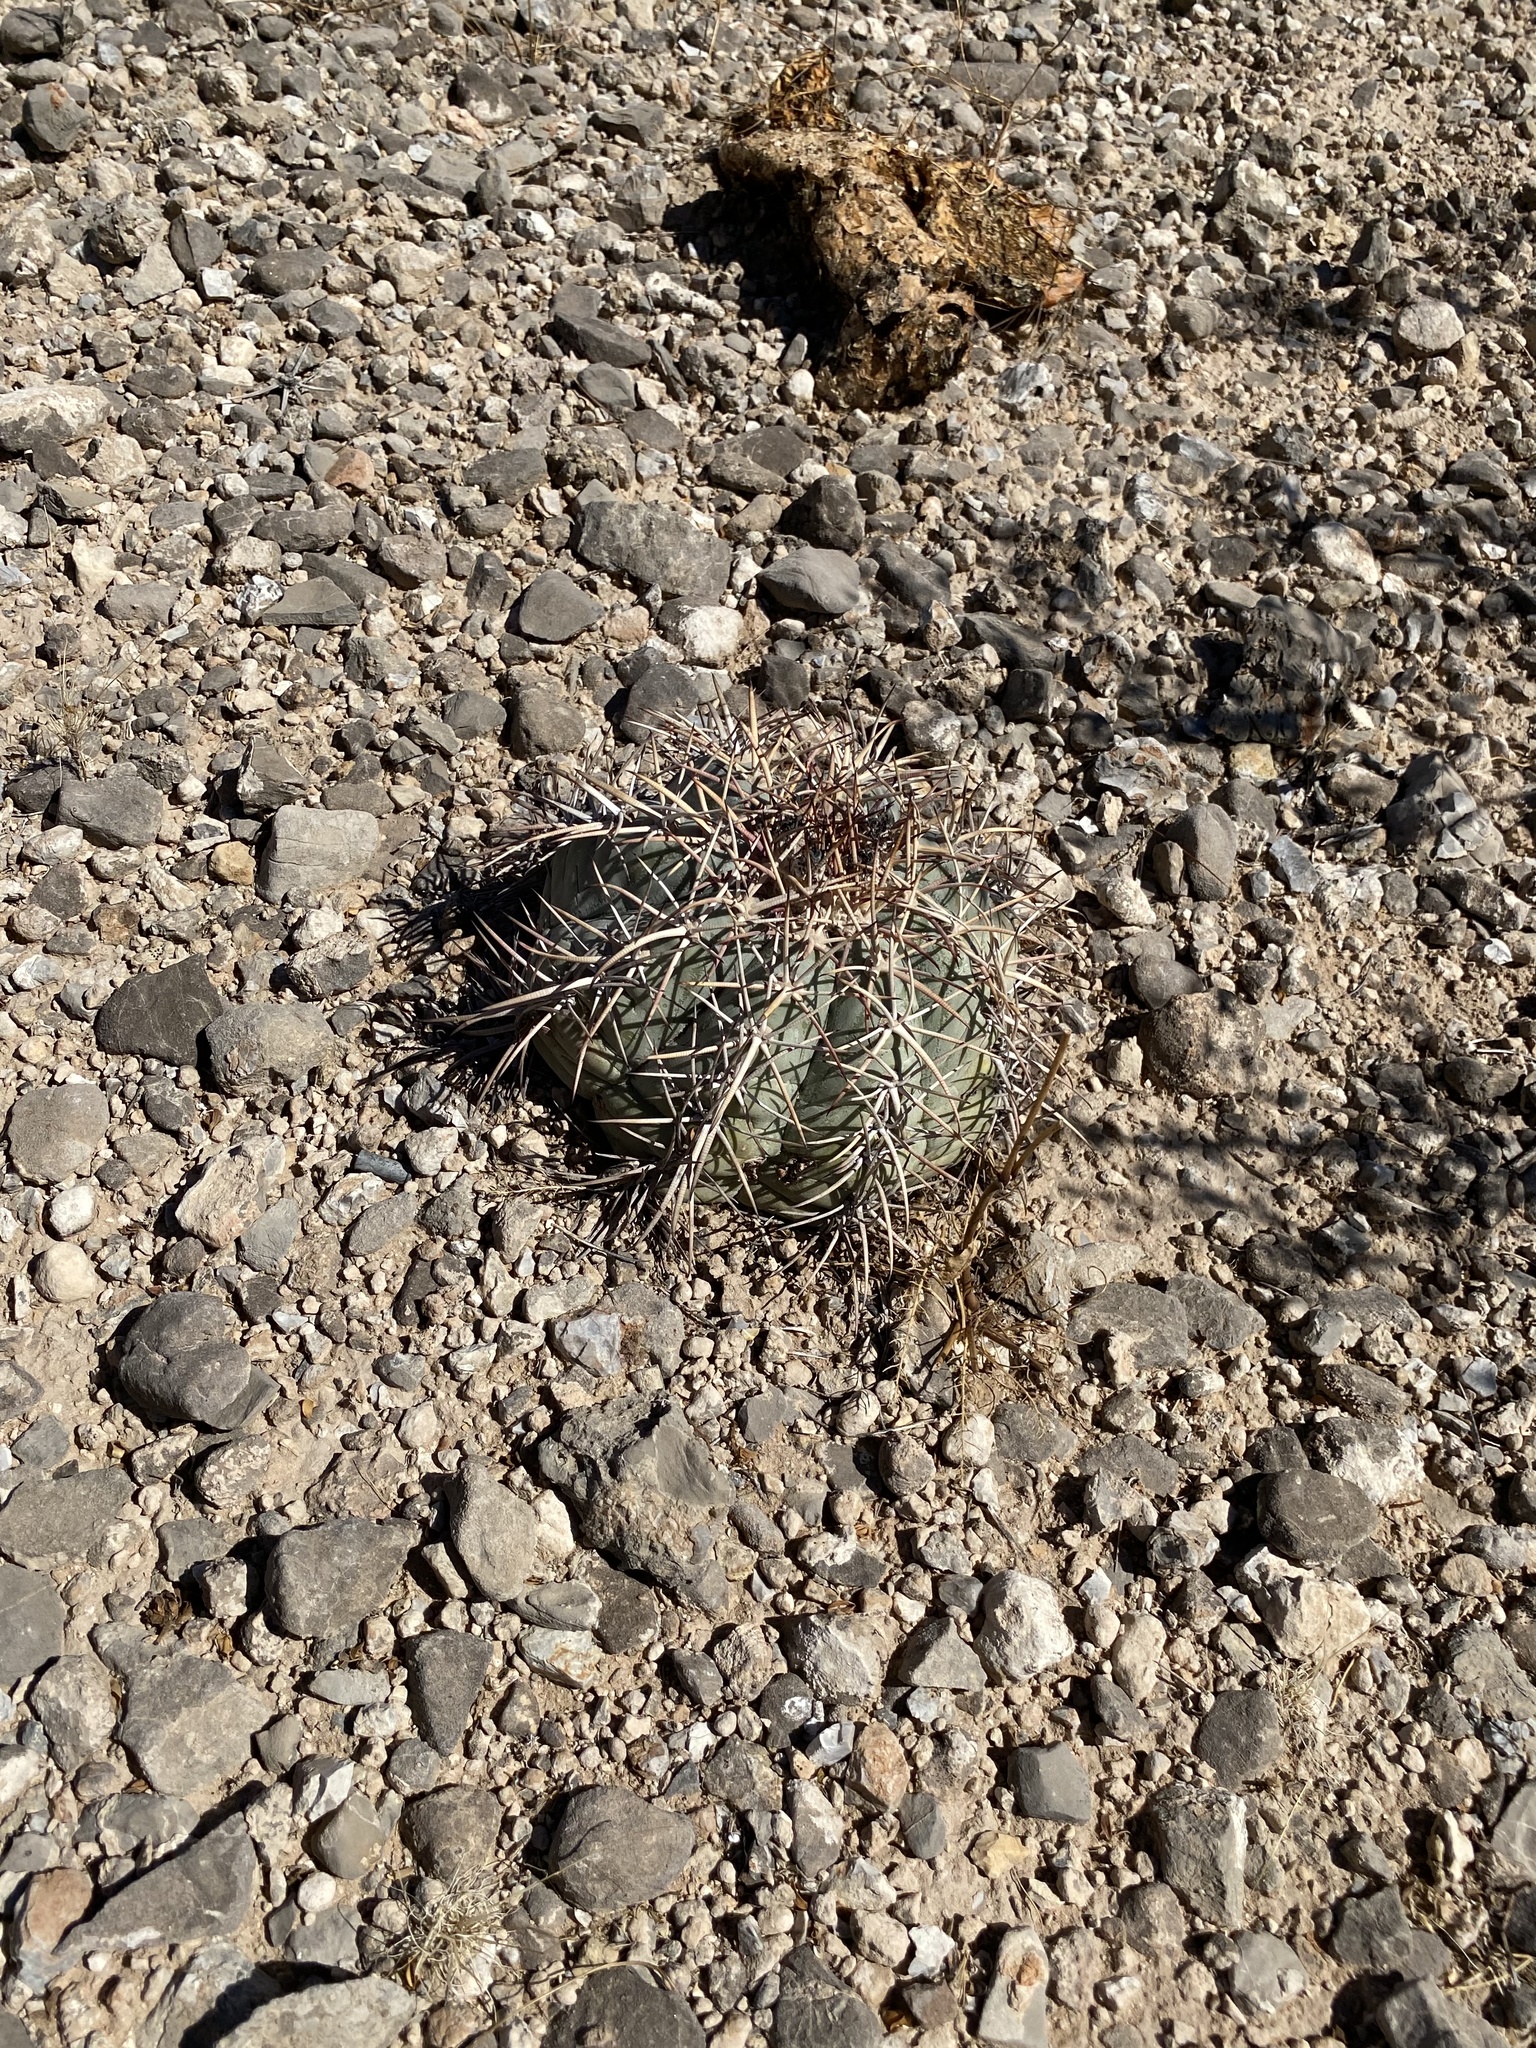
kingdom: Plantae
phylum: Tracheophyta
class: Magnoliopsida
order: Caryophyllales
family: Cactaceae
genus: Echinocactus
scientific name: Echinocactus horizonthalonius
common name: Devilshead
